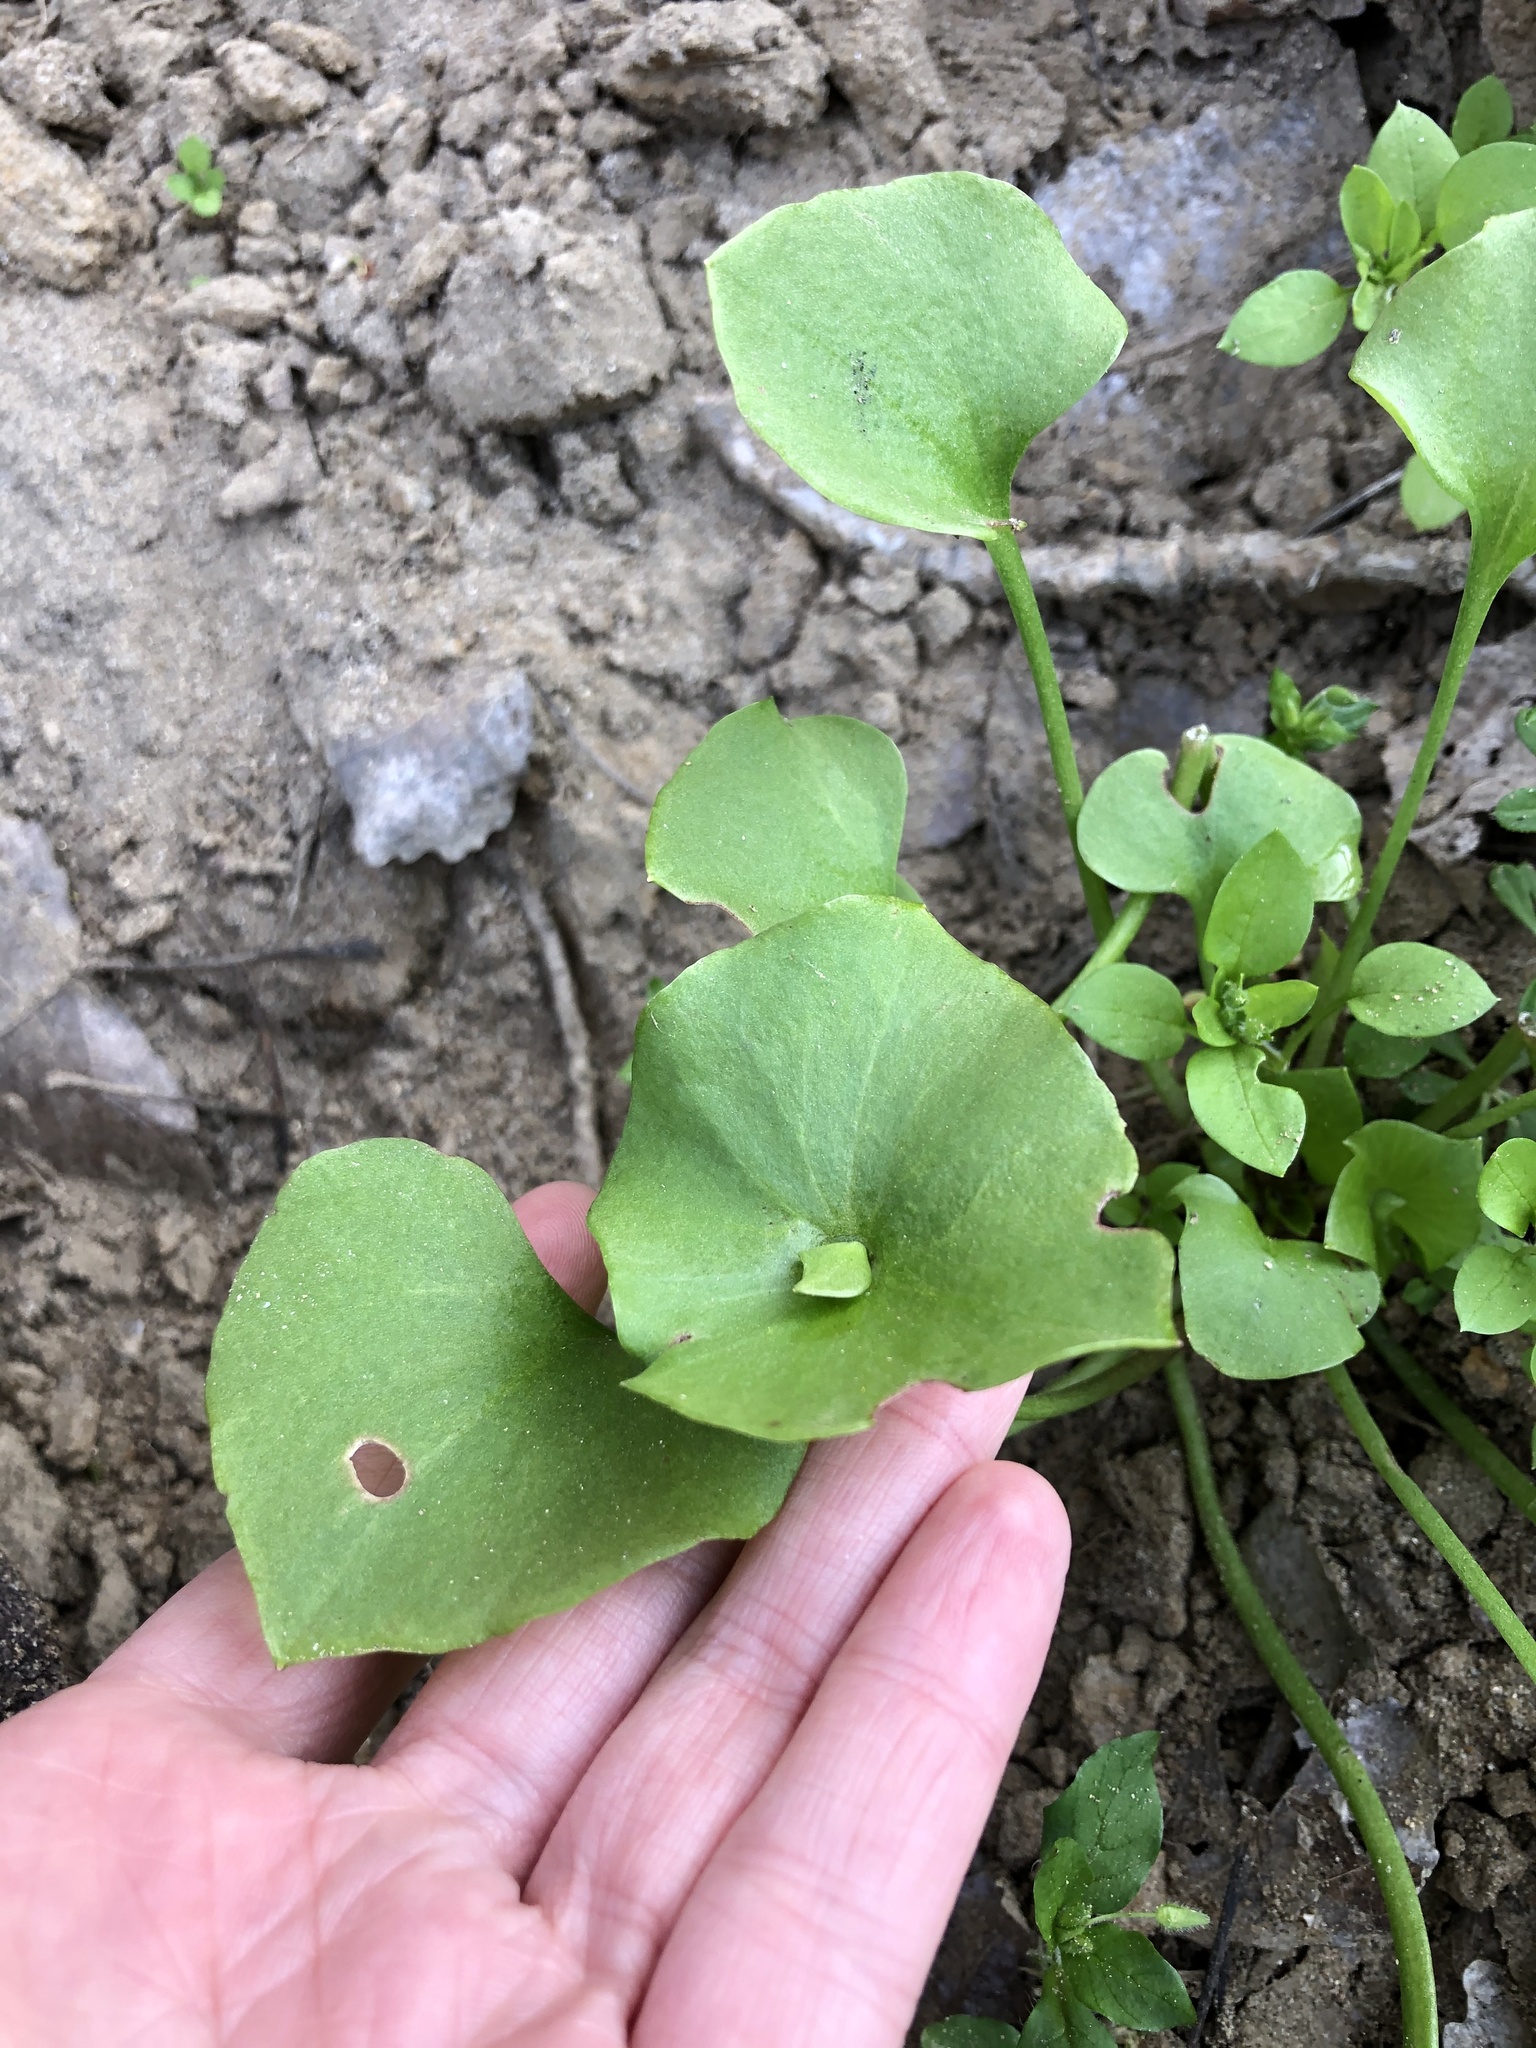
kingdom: Plantae
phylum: Tracheophyta
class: Magnoliopsida
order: Caryophyllales
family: Montiaceae
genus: Claytonia
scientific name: Claytonia perfoliata
